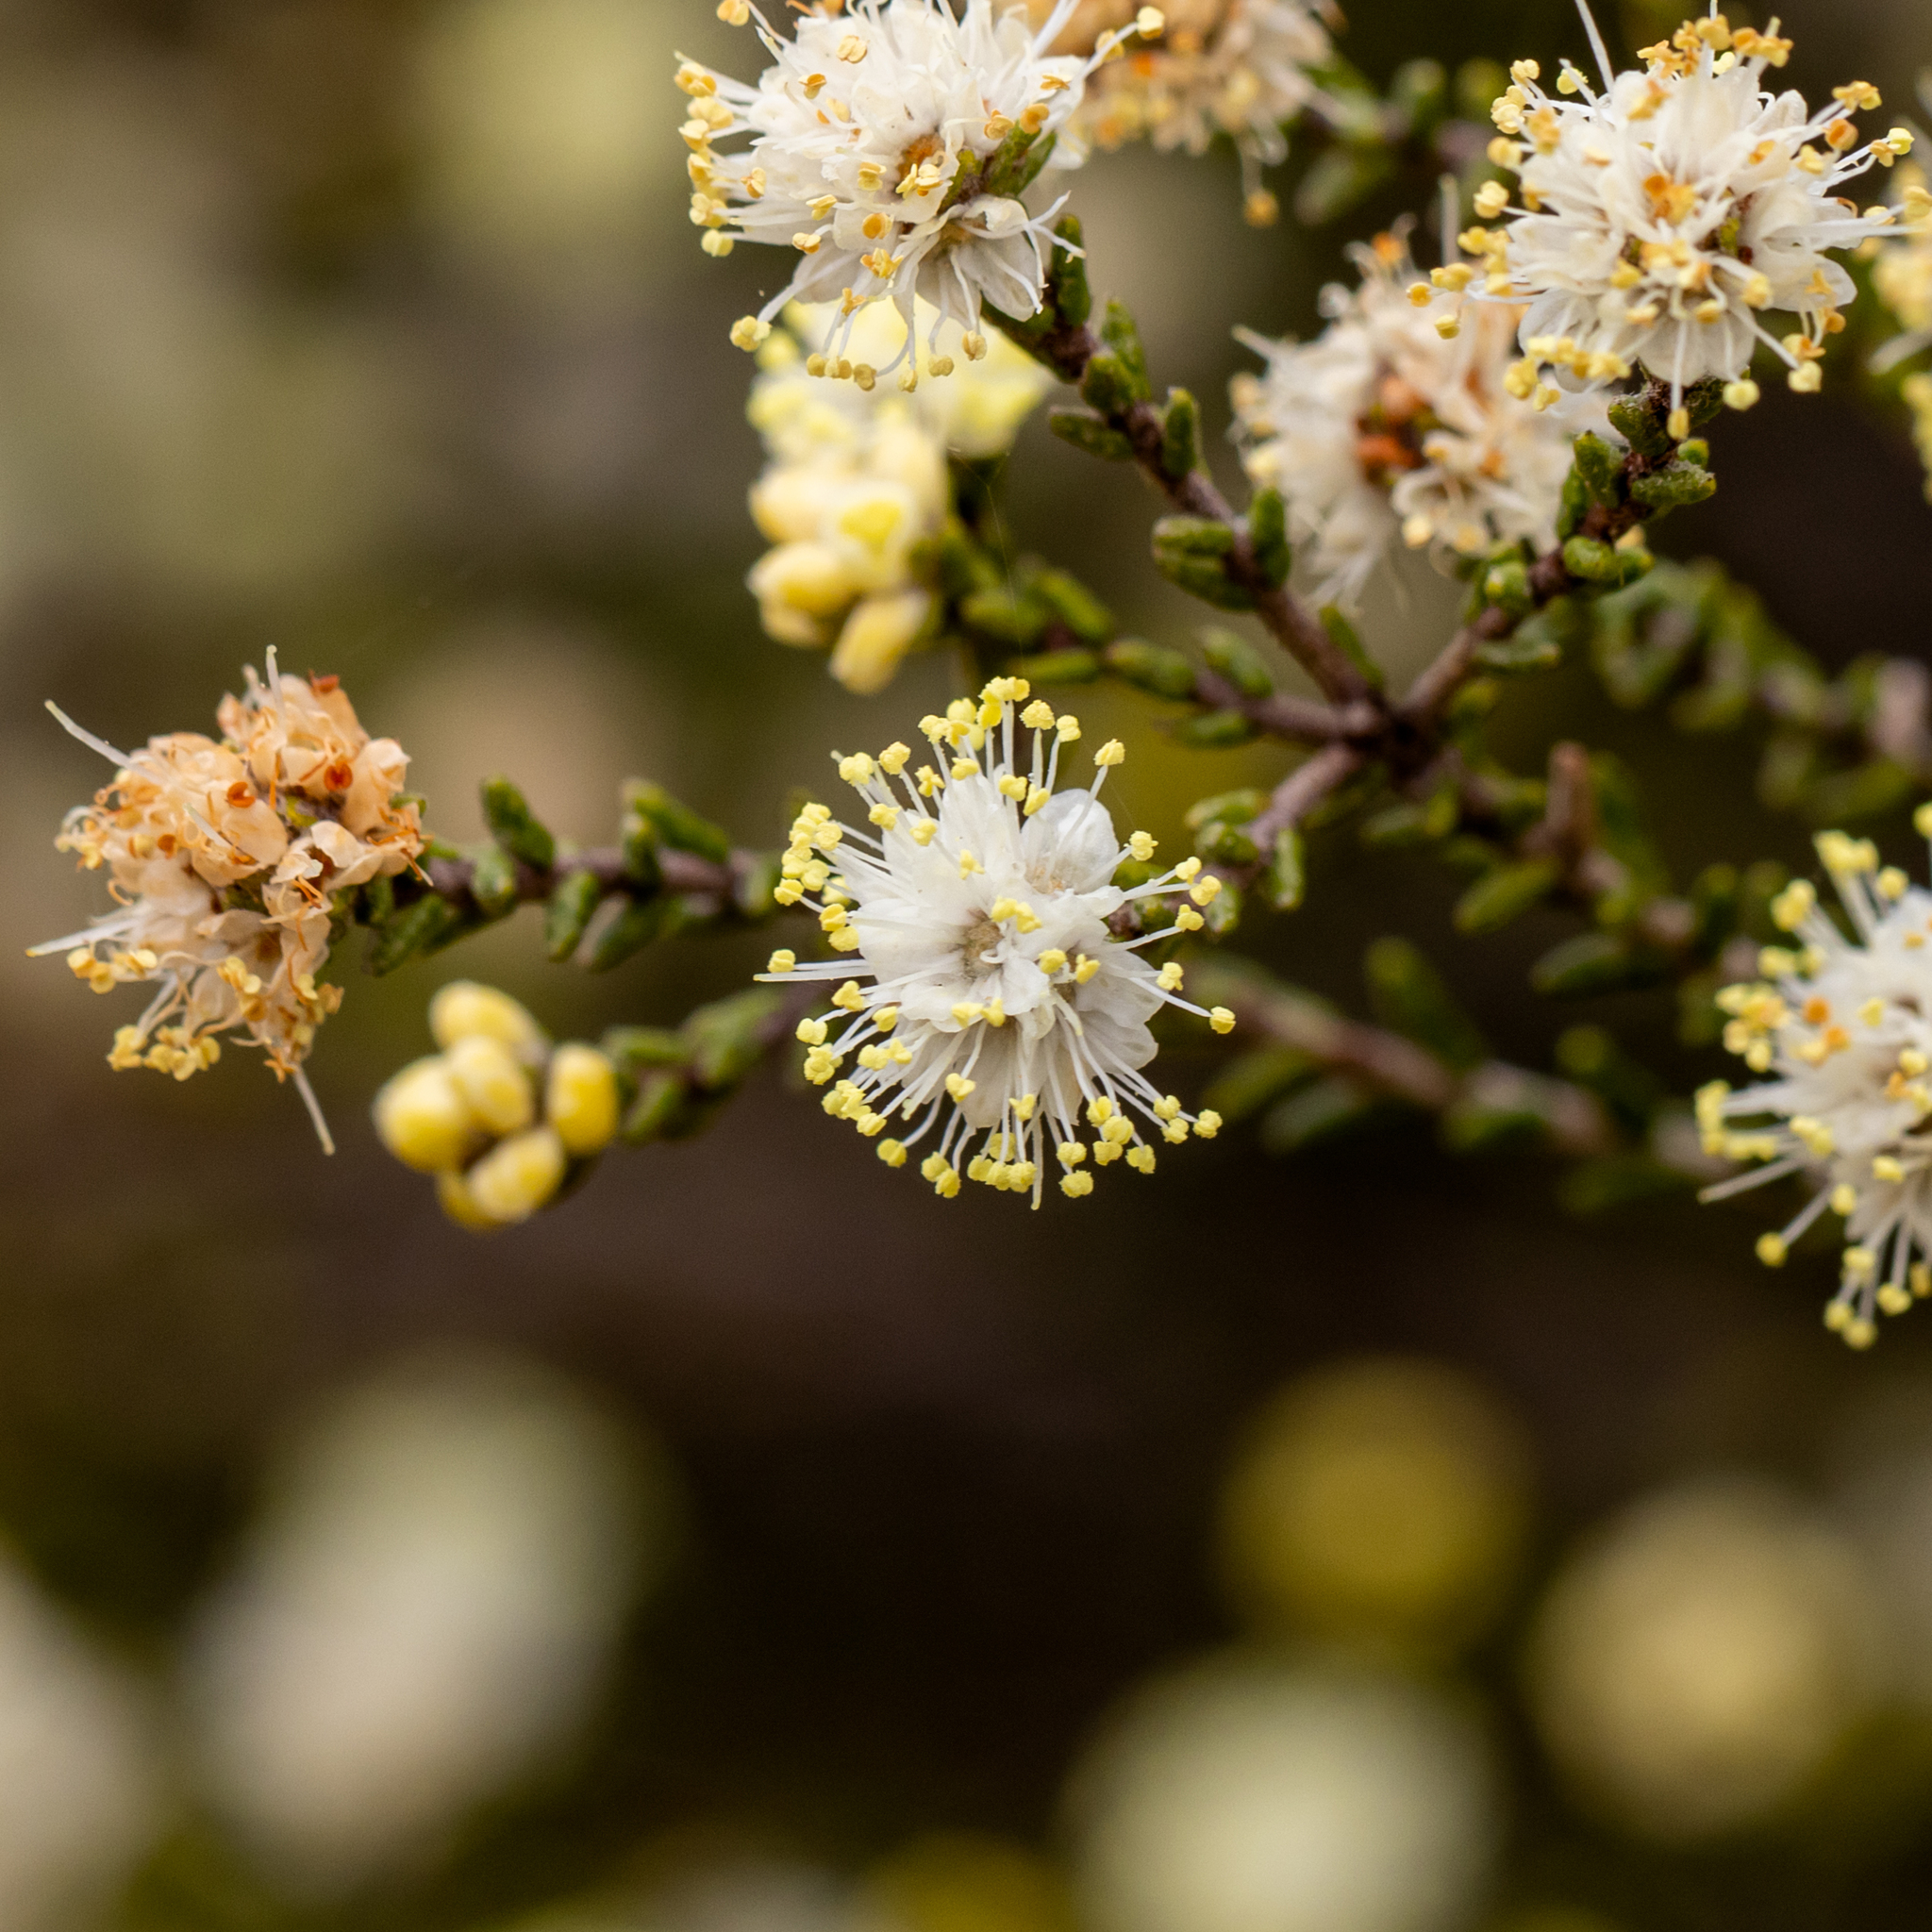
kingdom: Plantae
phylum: Tracheophyta
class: Magnoliopsida
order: Sapindales
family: Rutaceae
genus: Microcybe
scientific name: Microcybe multiflora
